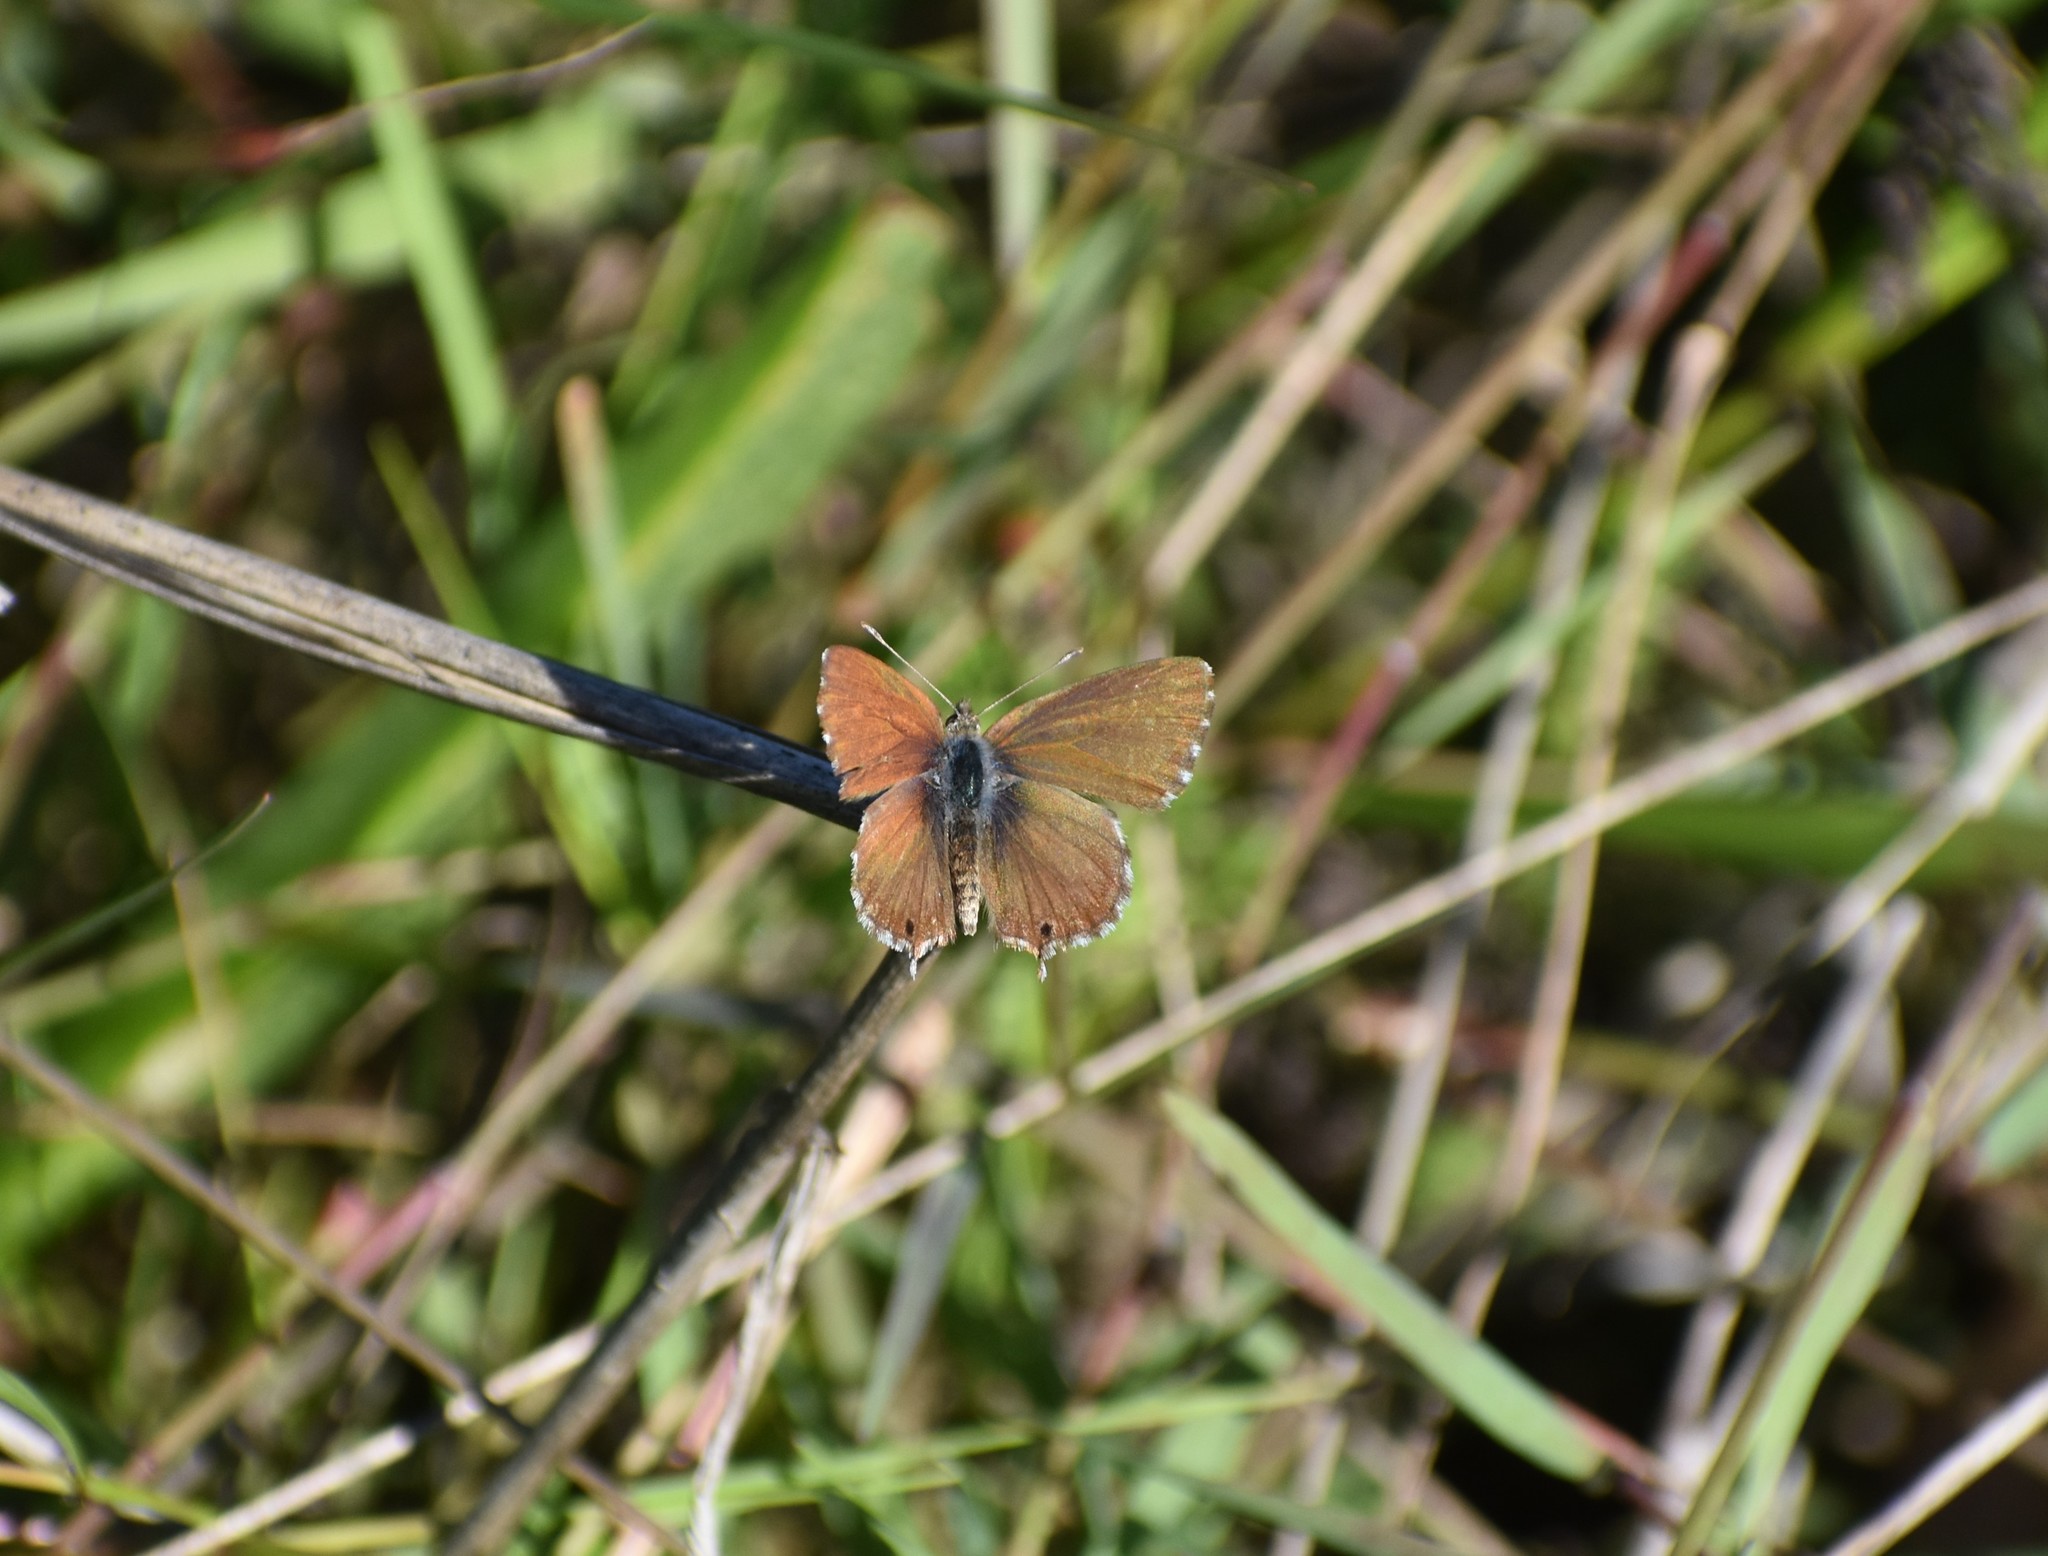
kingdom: Animalia
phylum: Arthropoda
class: Insecta
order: Lepidoptera
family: Lycaenidae
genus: Cacyreus
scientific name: Cacyreus fracta
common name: Water bronze
